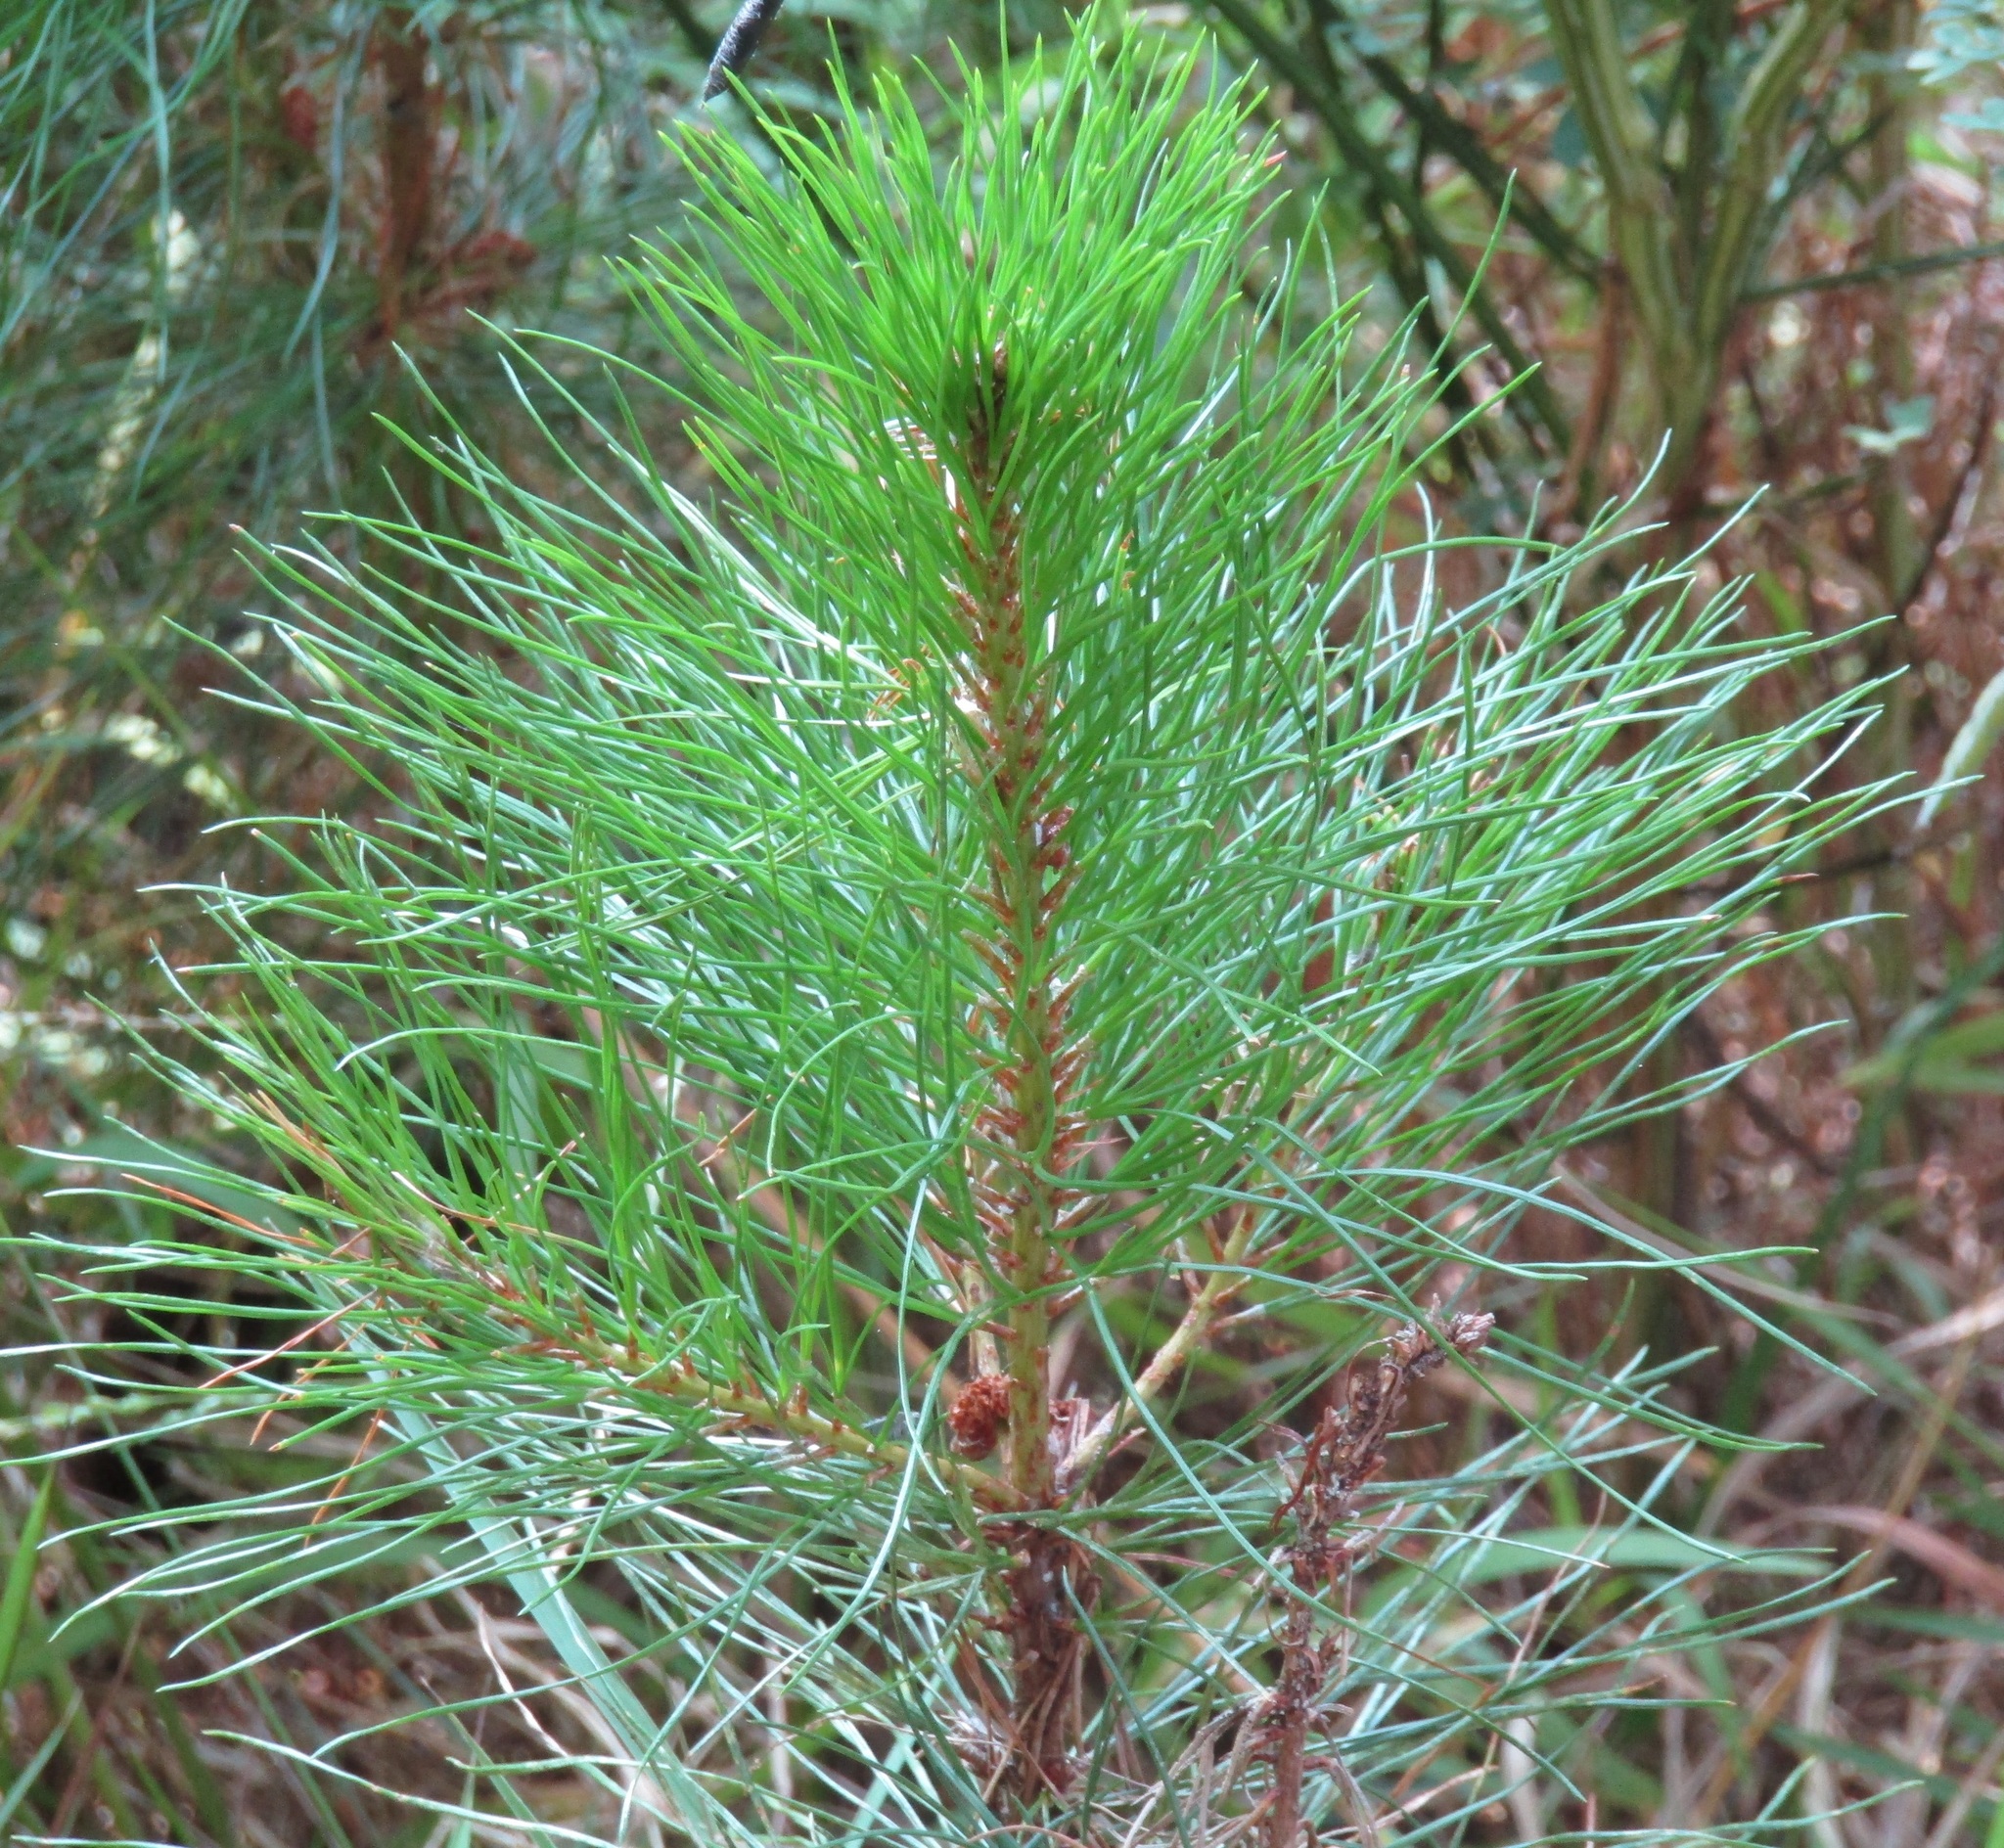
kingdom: Plantae
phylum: Tracheophyta
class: Pinopsida
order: Pinales
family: Pinaceae
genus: Pinus
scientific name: Pinus radiata
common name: Monterey pine
